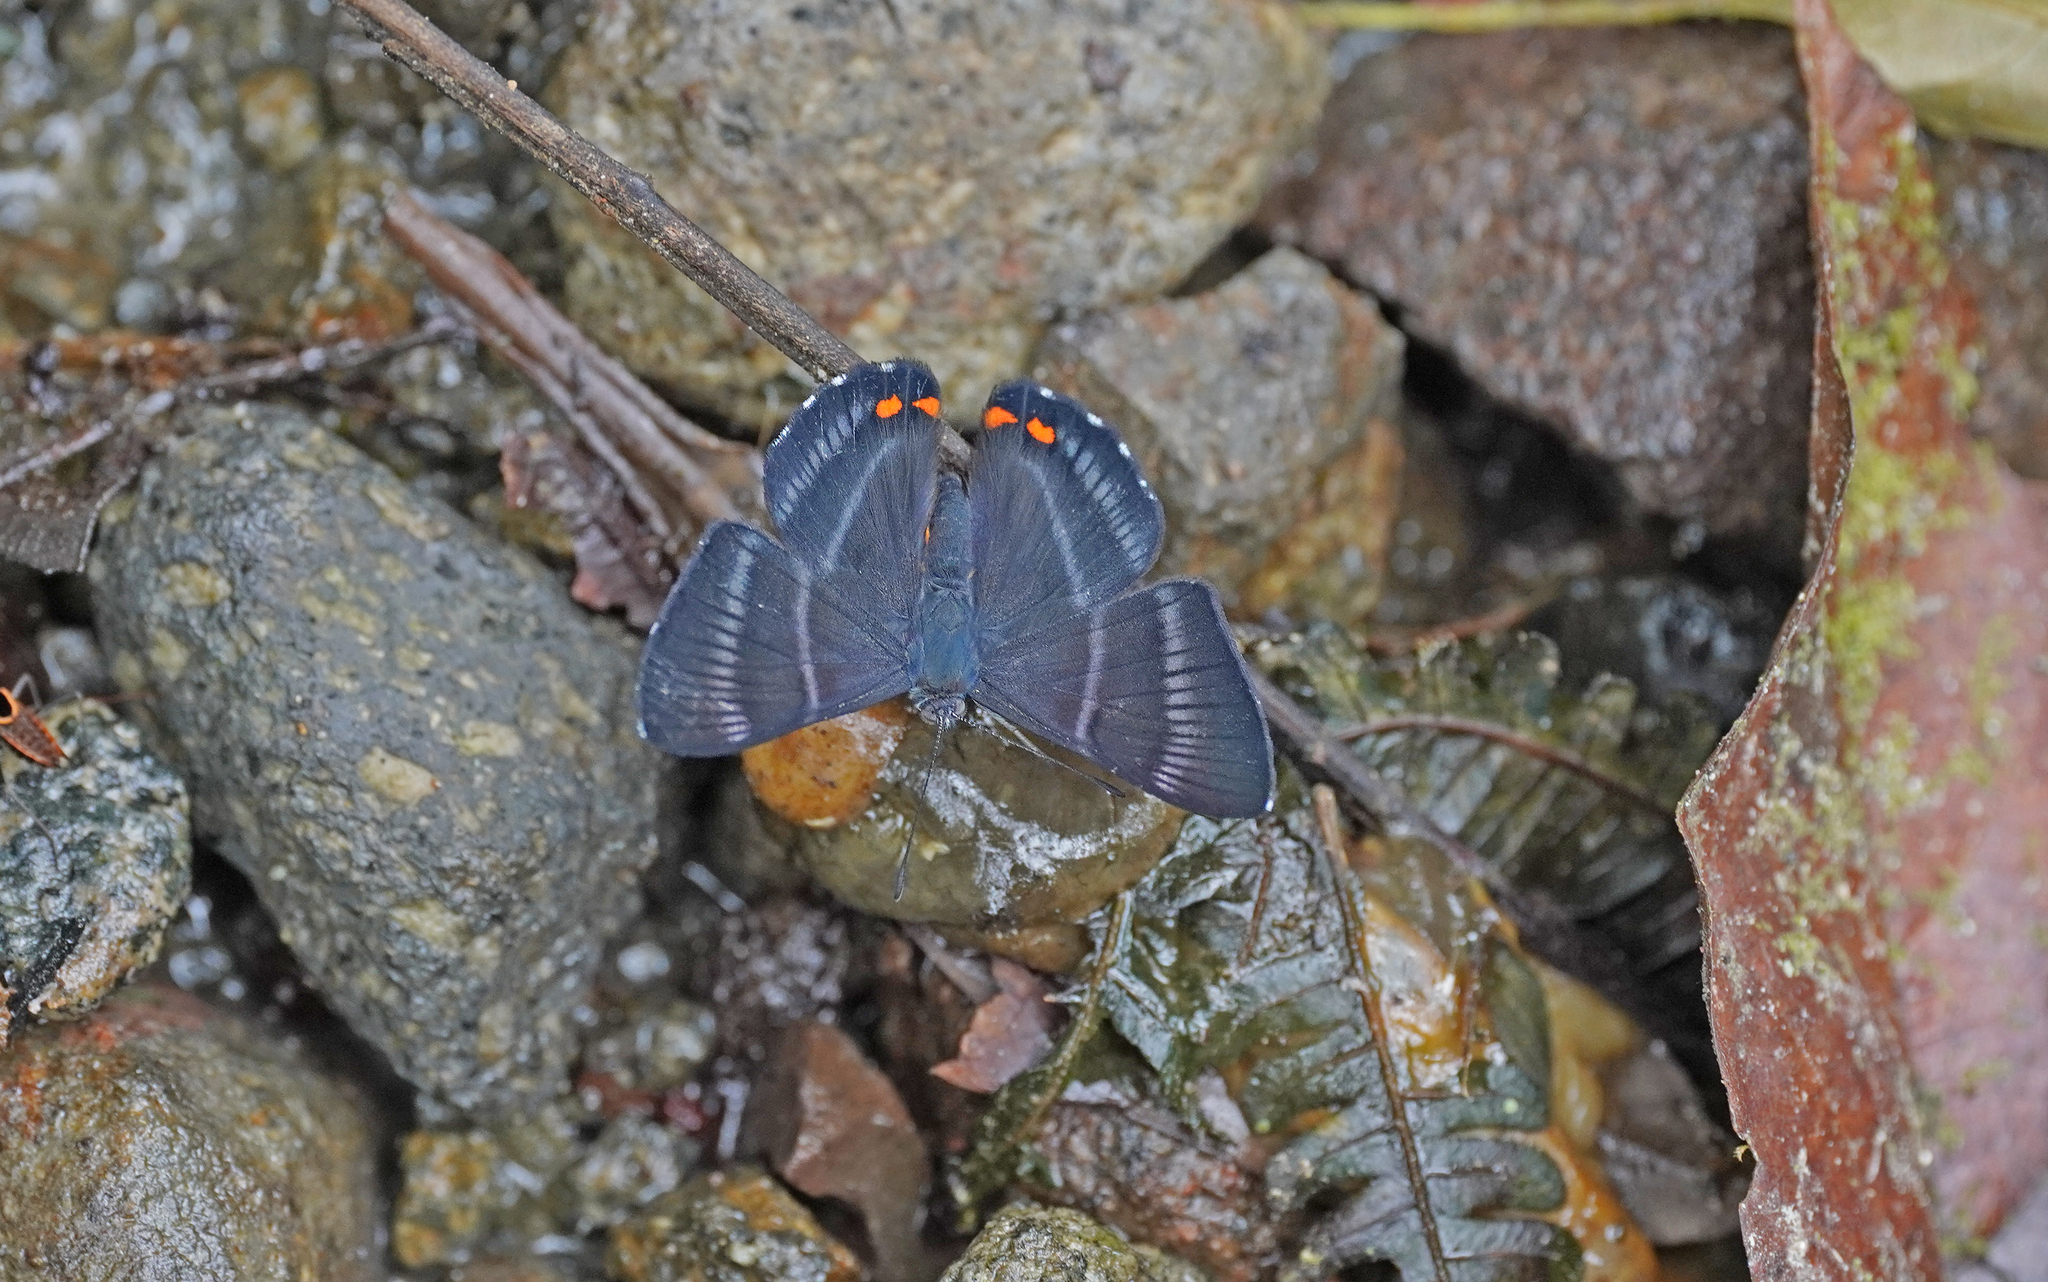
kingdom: Animalia
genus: Siseme
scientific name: Siseme aristoteles
